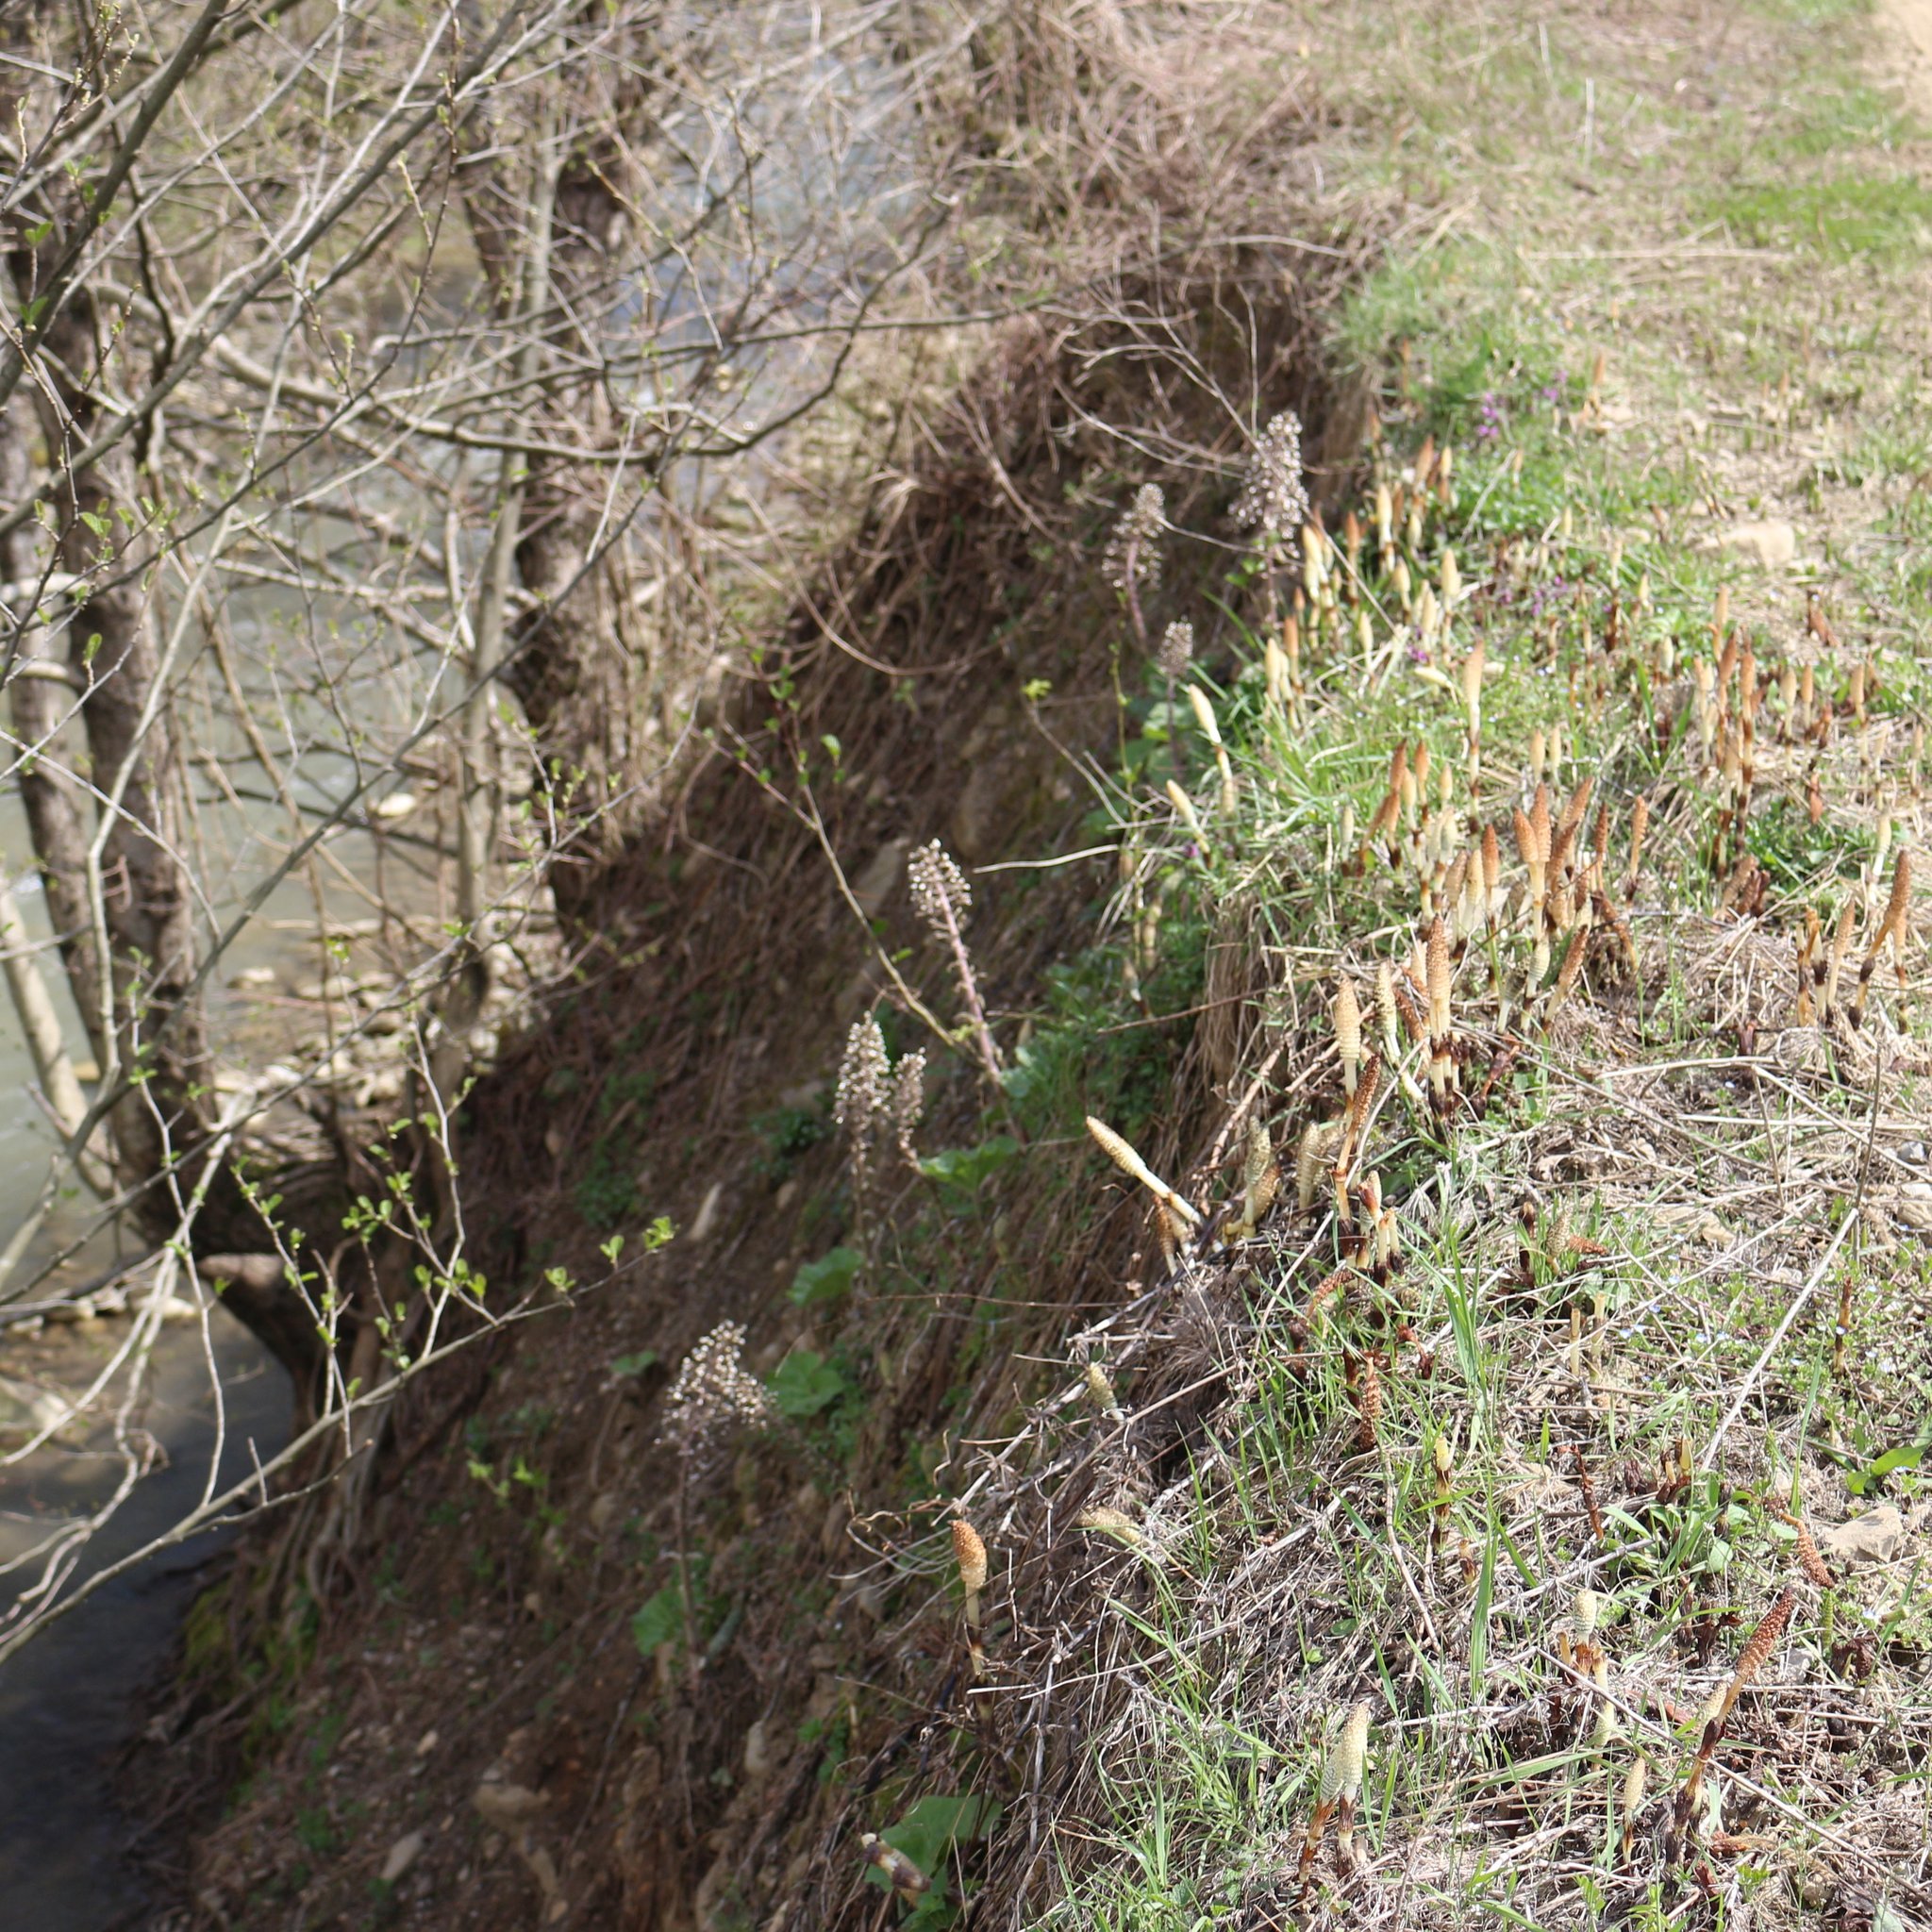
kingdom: Plantae
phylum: Tracheophyta
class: Magnoliopsida
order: Asterales
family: Asteraceae
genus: Petasites
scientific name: Petasites hybridus
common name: Butterbur
